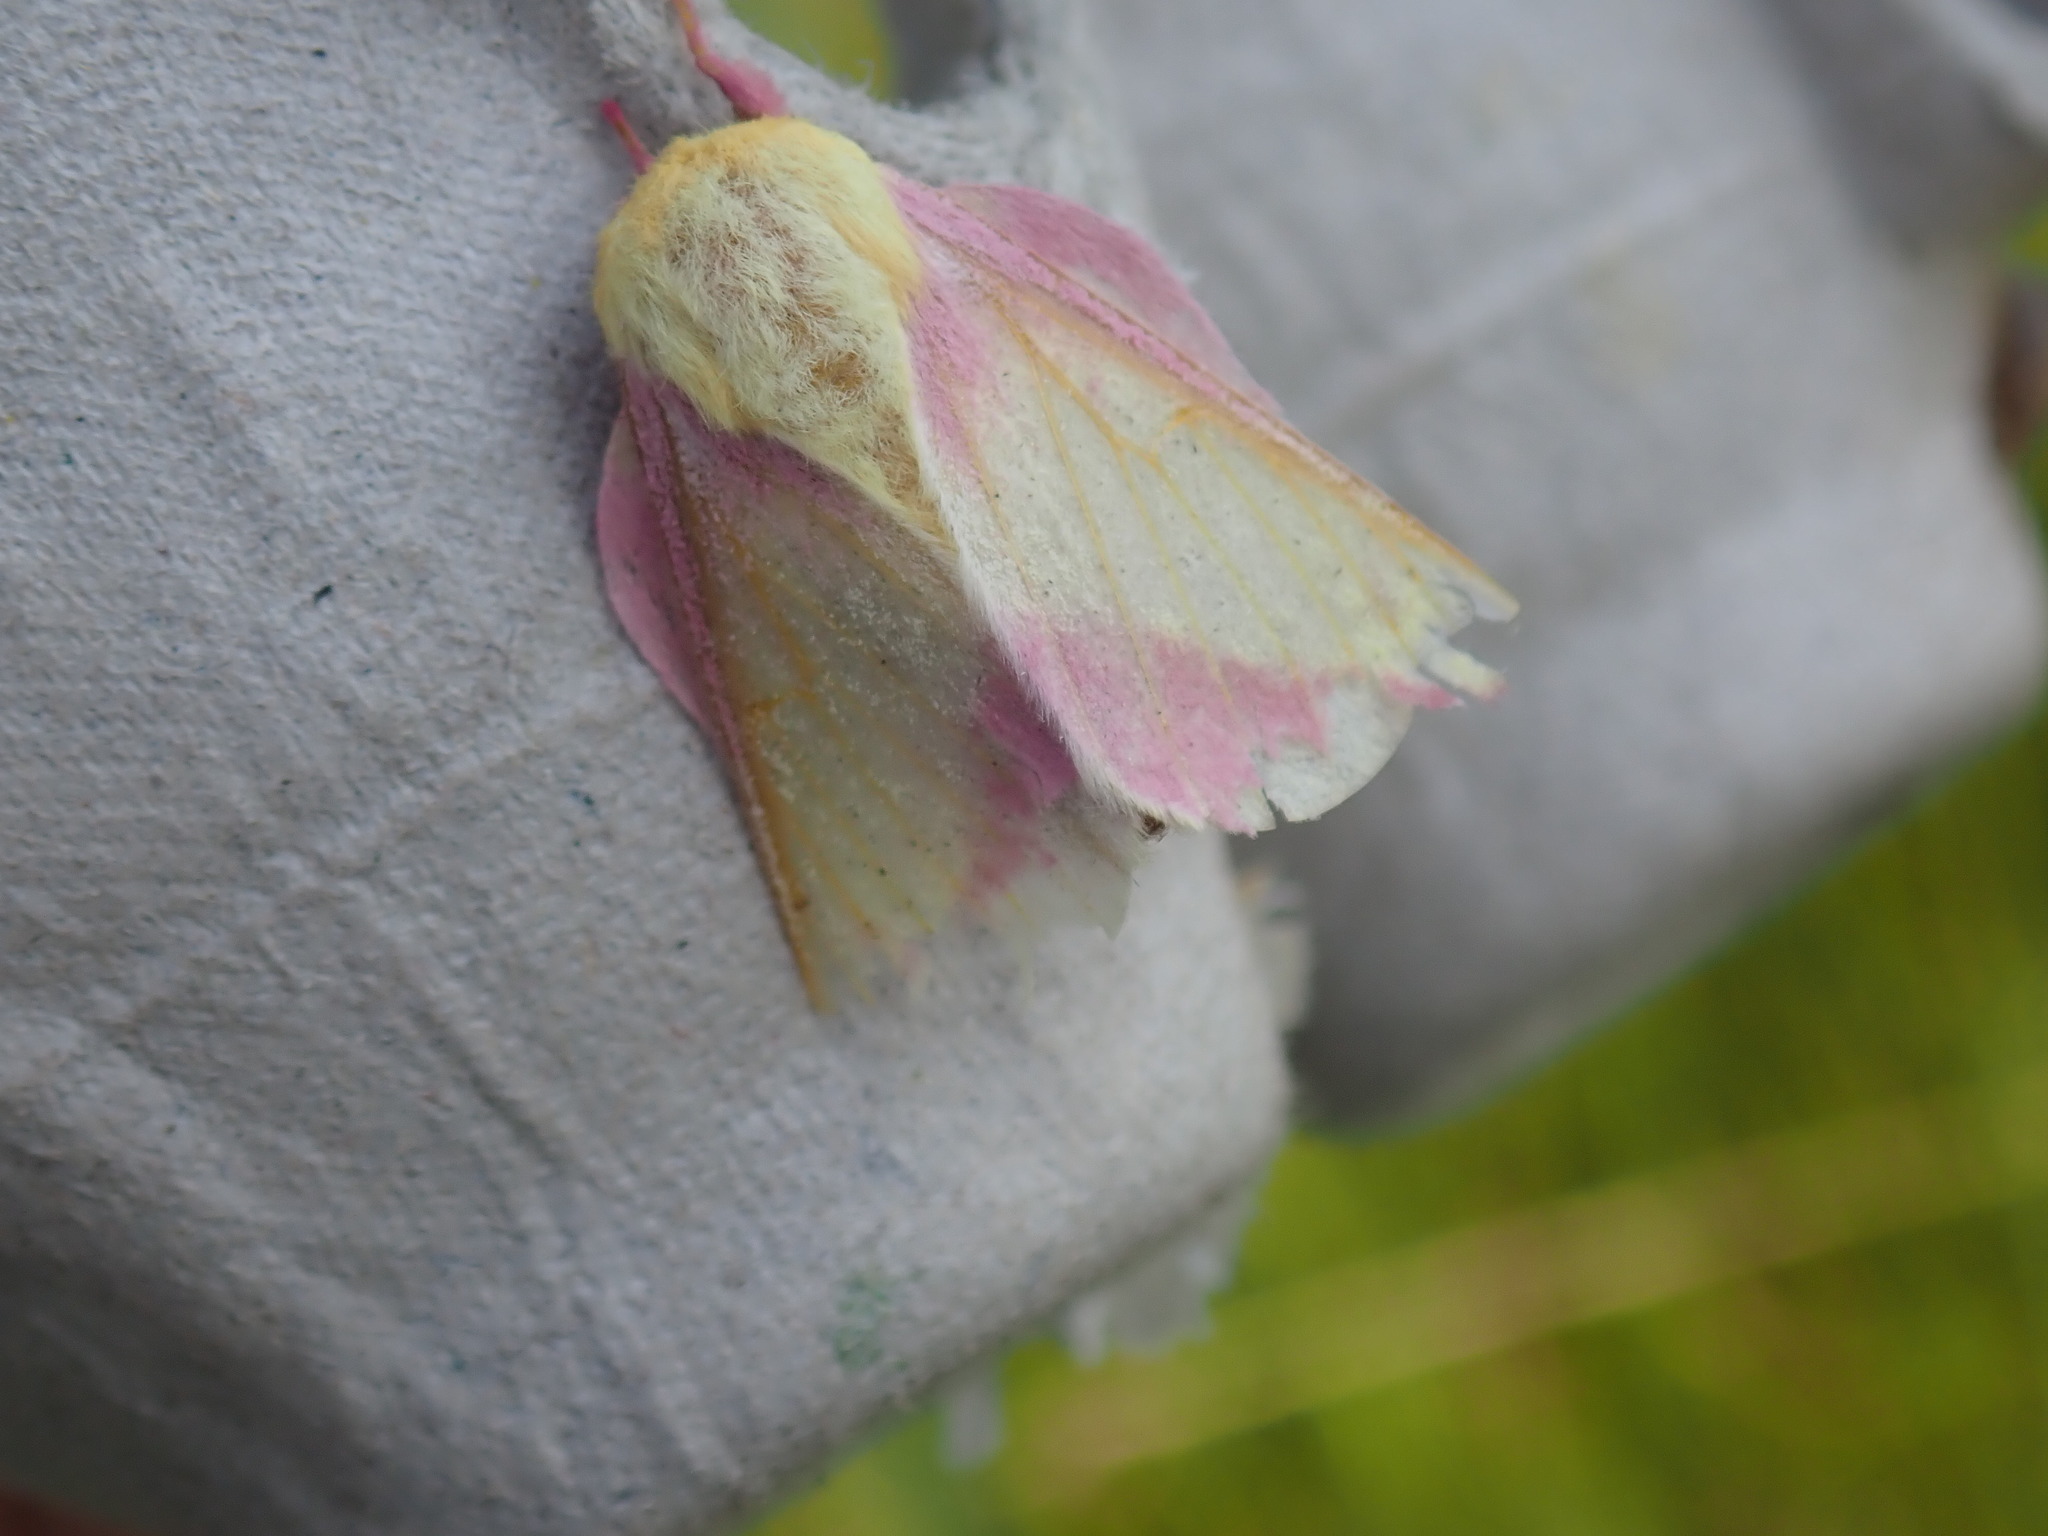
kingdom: Animalia
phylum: Arthropoda
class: Insecta
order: Lepidoptera
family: Saturniidae
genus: Dryocampa
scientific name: Dryocampa rubicunda
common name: Rosy maple moth
